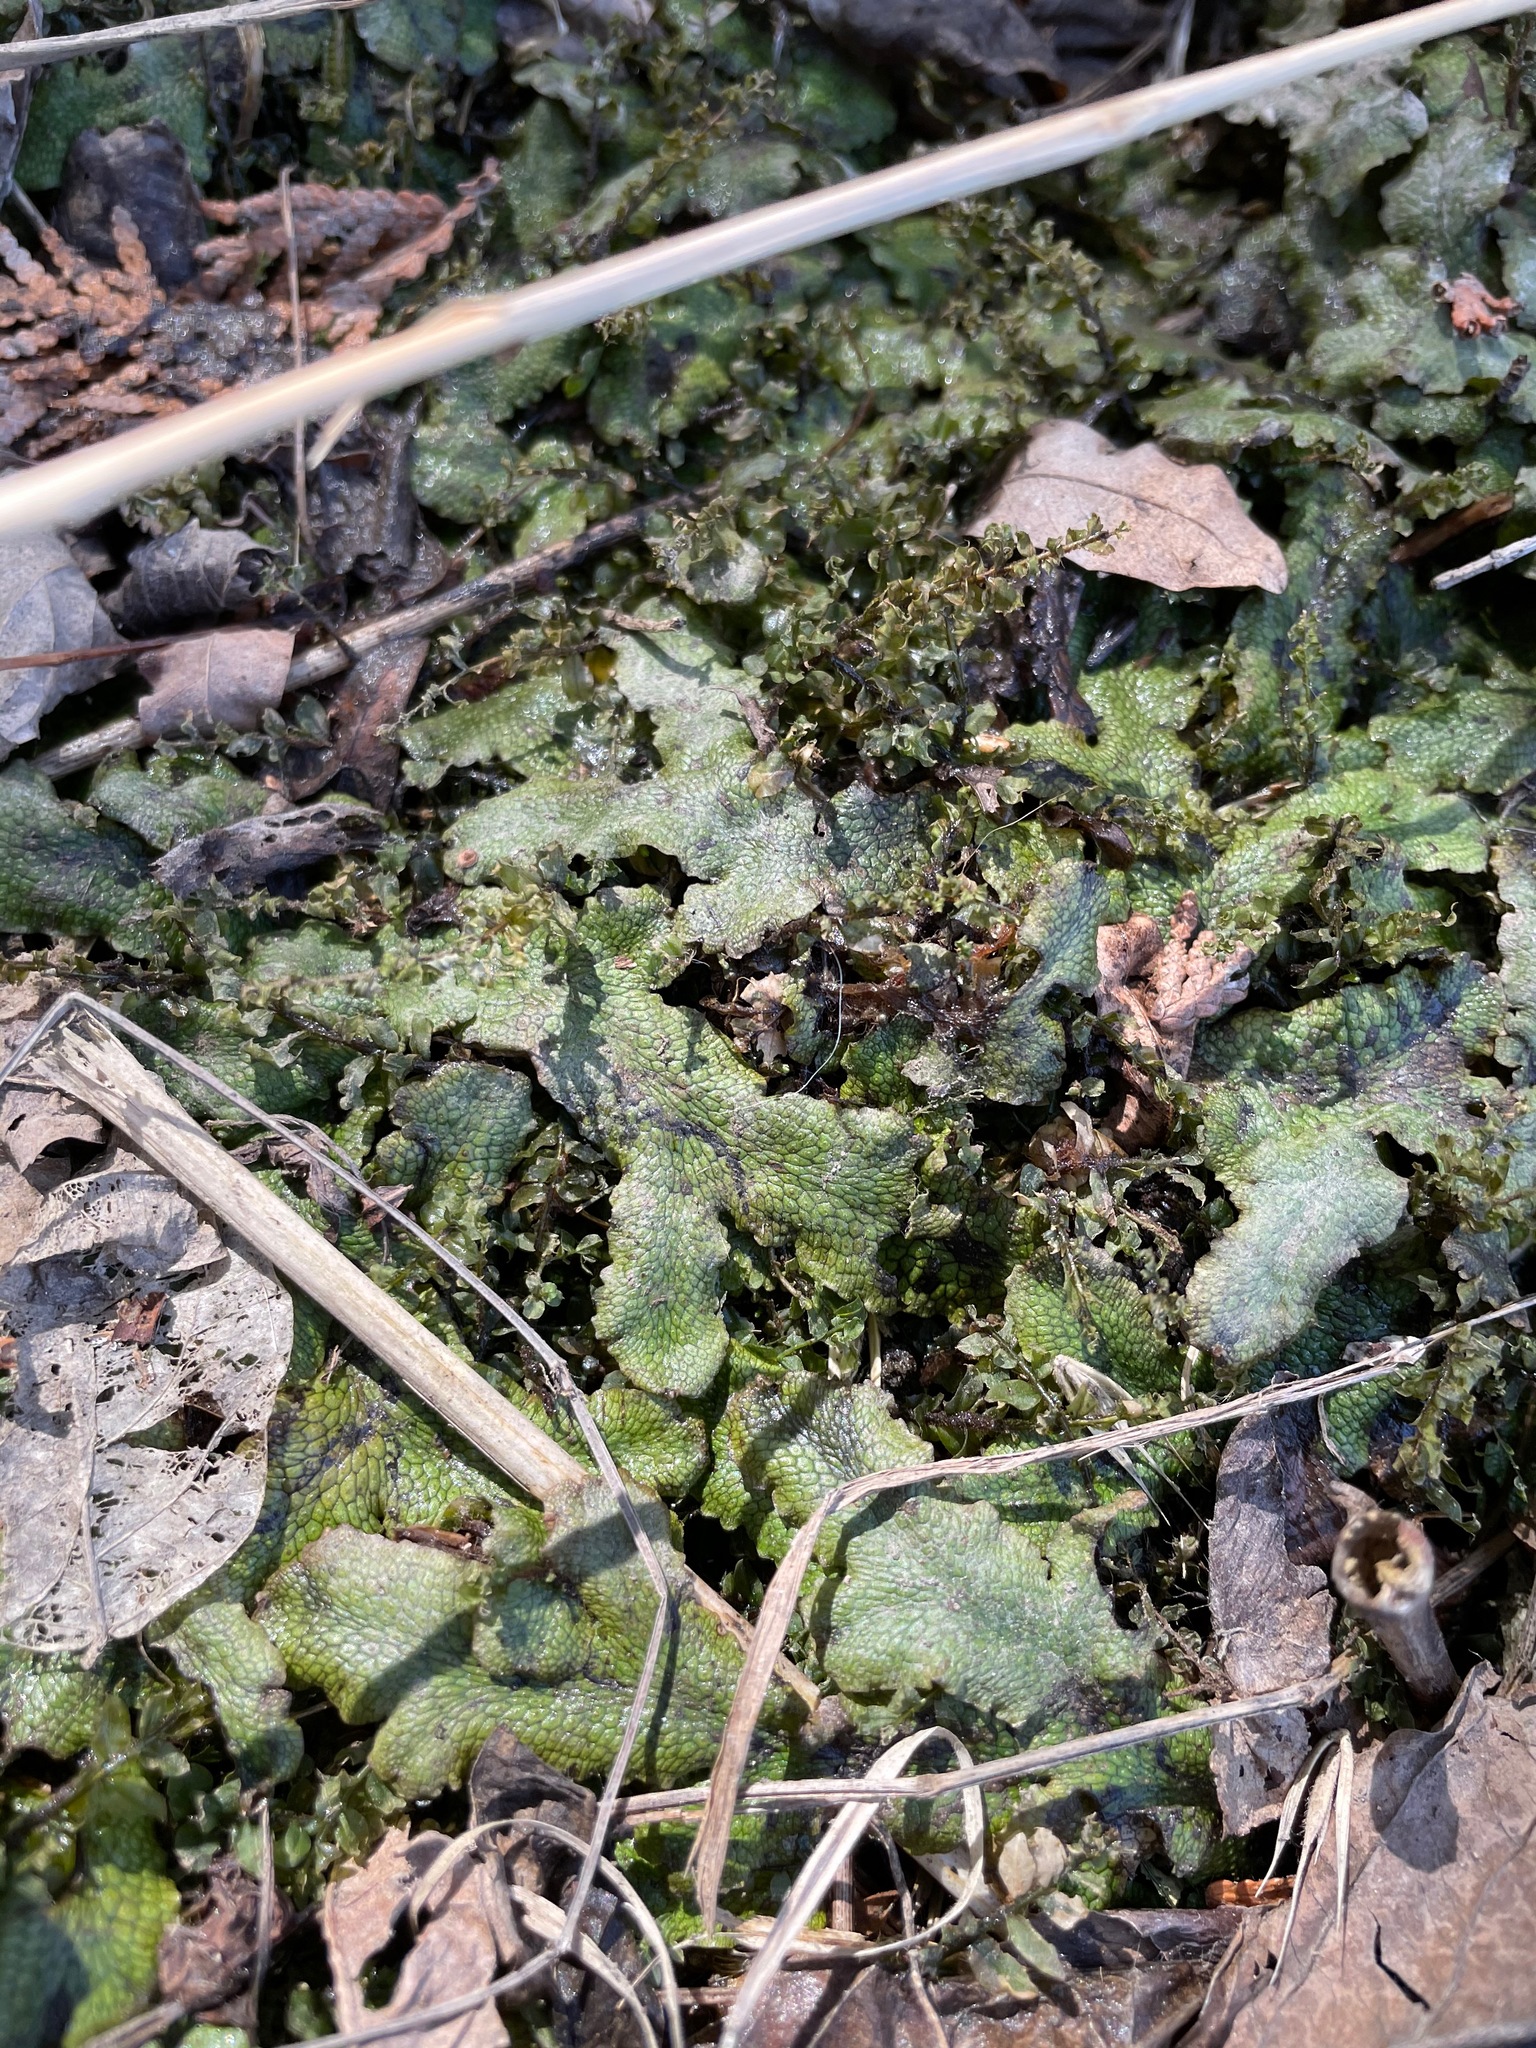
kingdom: Plantae
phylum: Marchantiophyta
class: Marchantiopsida
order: Marchantiales
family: Conocephalaceae
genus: Conocephalum
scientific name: Conocephalum salebrosum
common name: Cat-tongue liverwort
